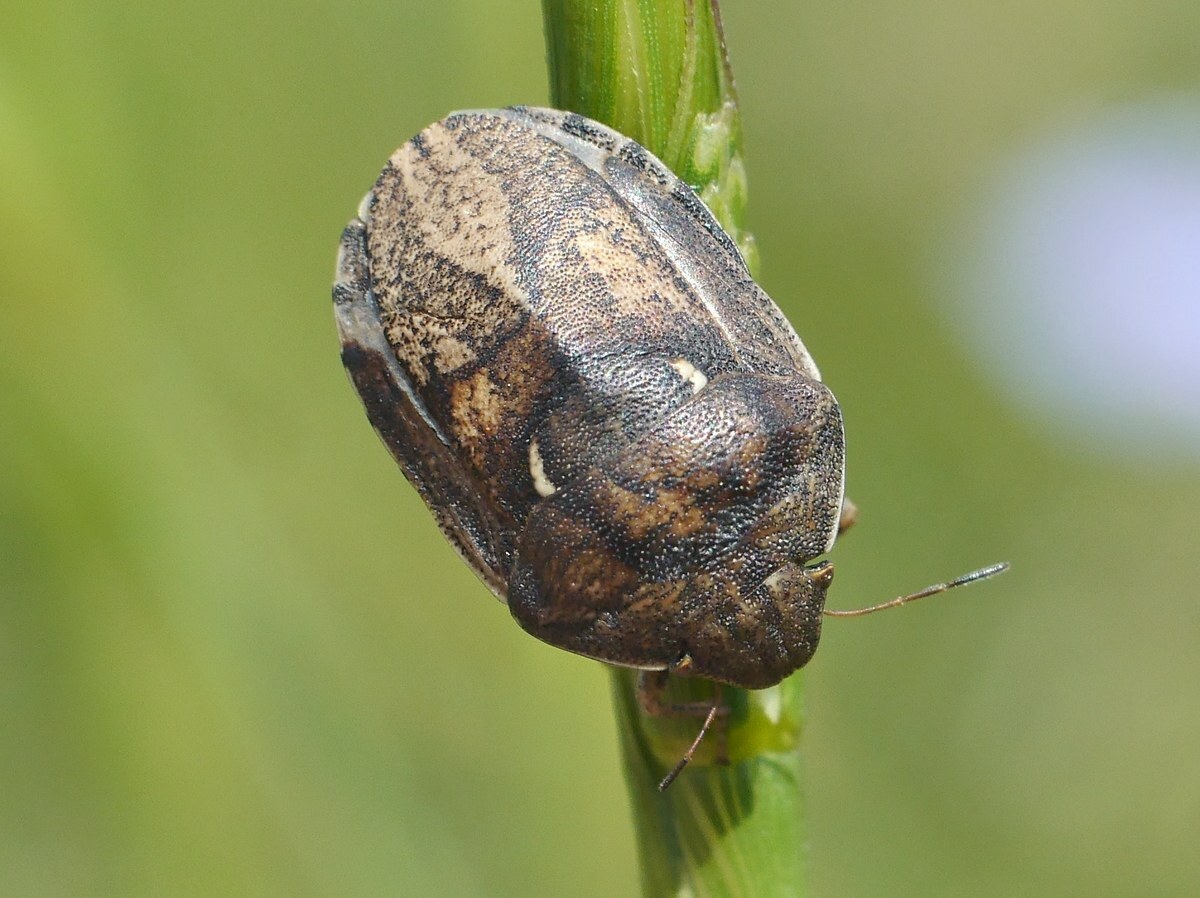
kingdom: Animalia
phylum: Arthropoda
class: Insecta
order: Hemiptera
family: Scutelleridae
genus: Eurygaster
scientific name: Eurygaster integriceps
